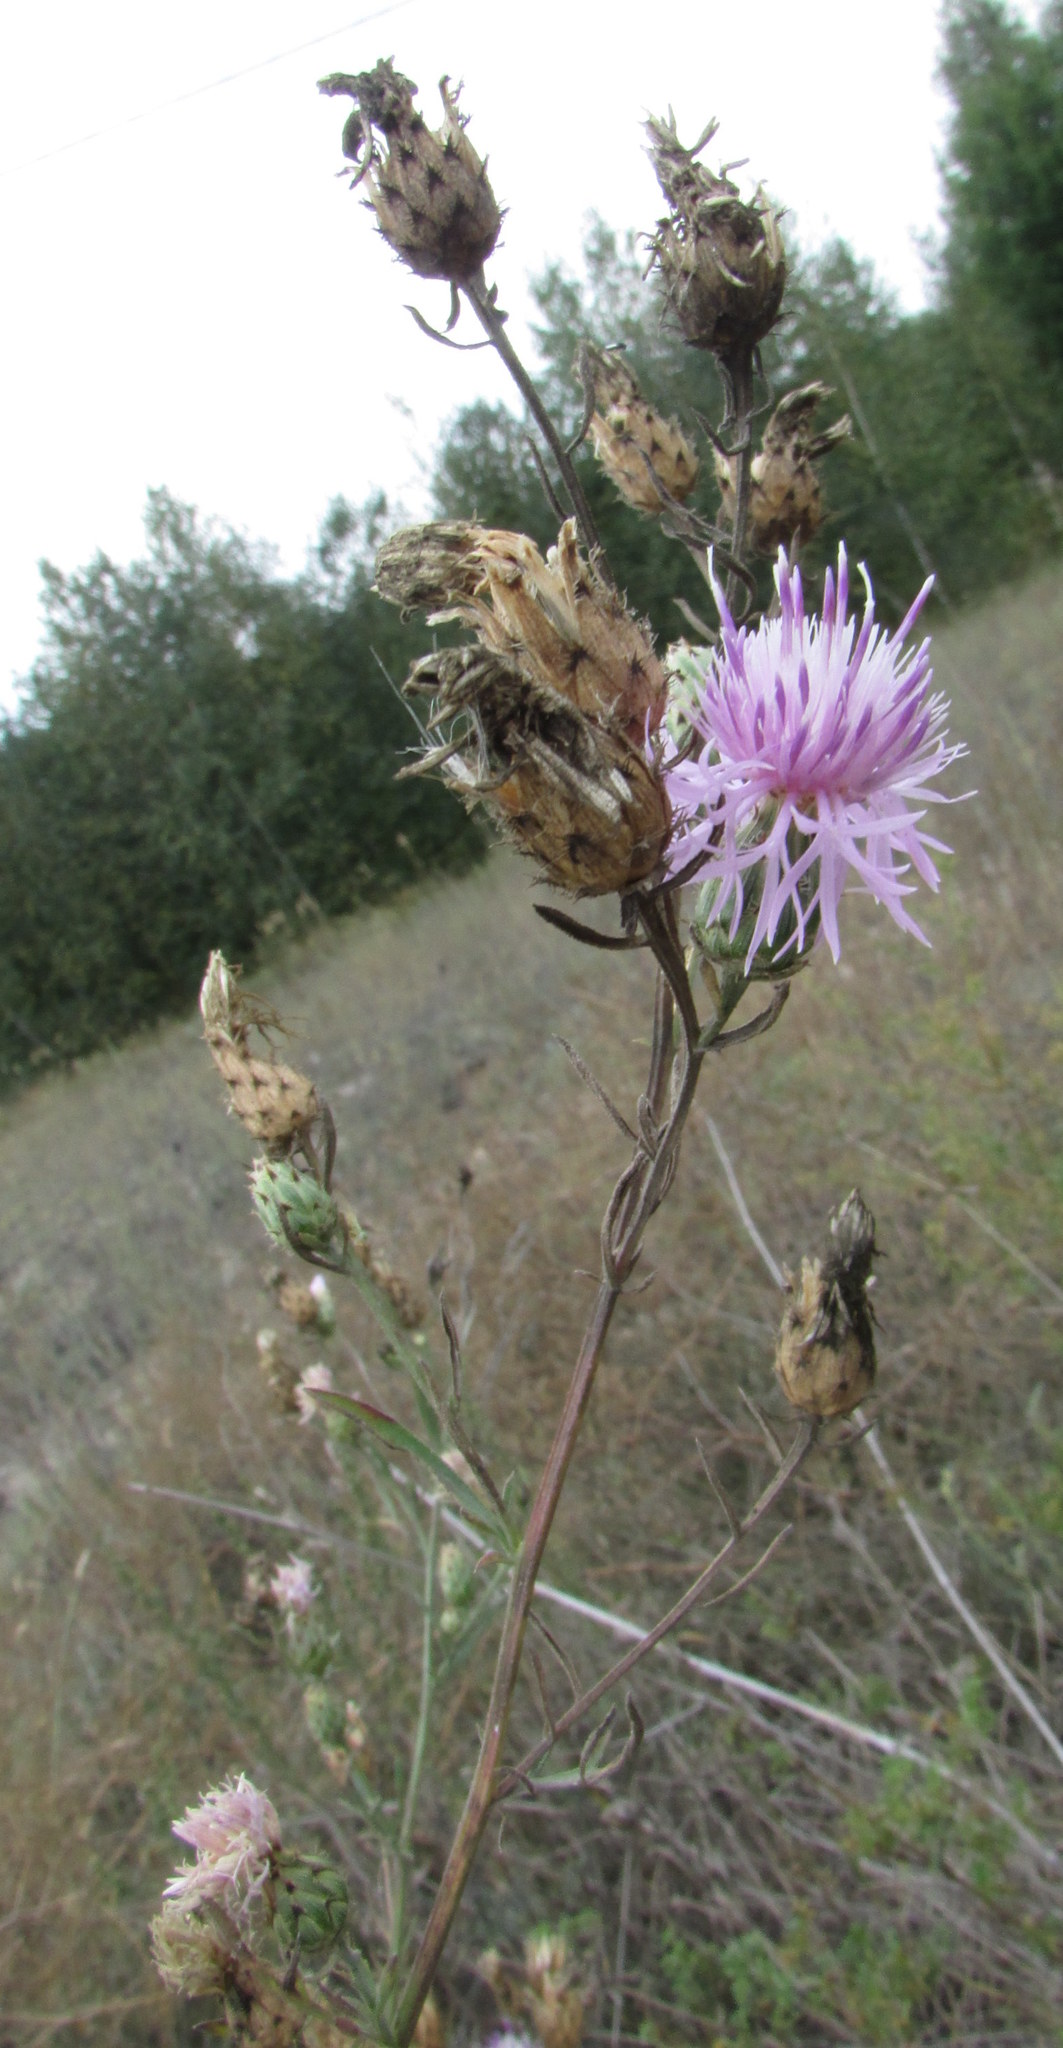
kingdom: Plantae
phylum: Tracheophyta
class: Magnoliopsida
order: Asterales
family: Asteraceae
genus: Centaurea
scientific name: Centaurea stoebe
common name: Spotted knapweed
